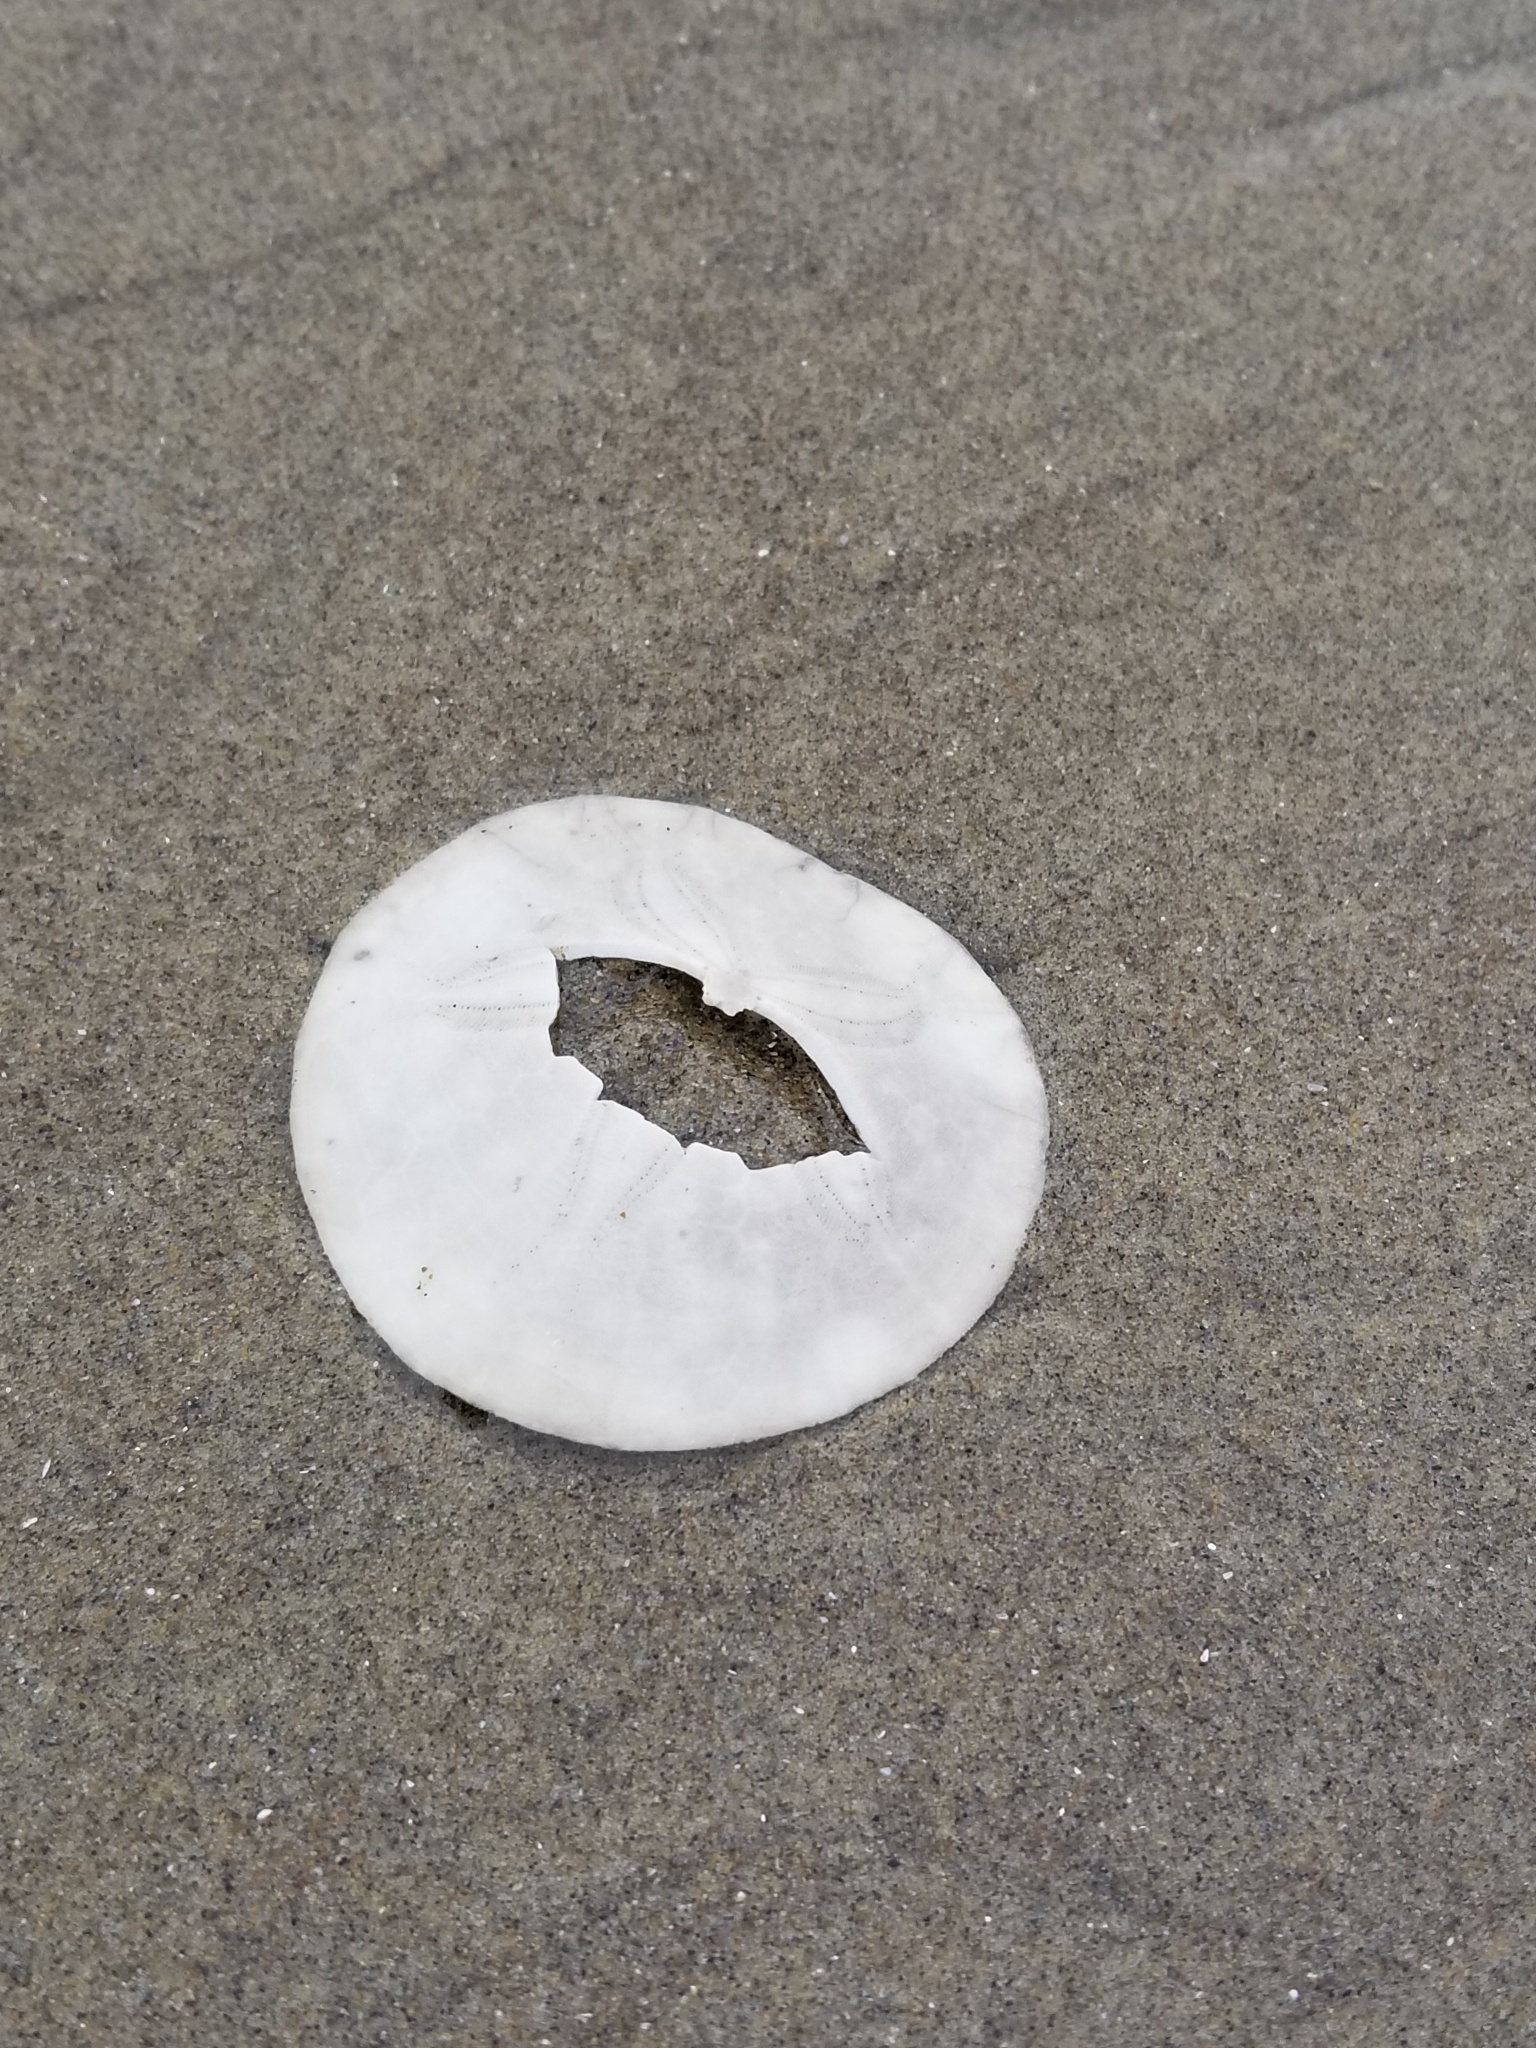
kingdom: Animalia
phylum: Echinodermata
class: Echinoidea
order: Echinolampadacea
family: Dendrasteridae
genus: Dendraster
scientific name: Dendraster excentricus
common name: Eccentric sand dollar sea urchin
